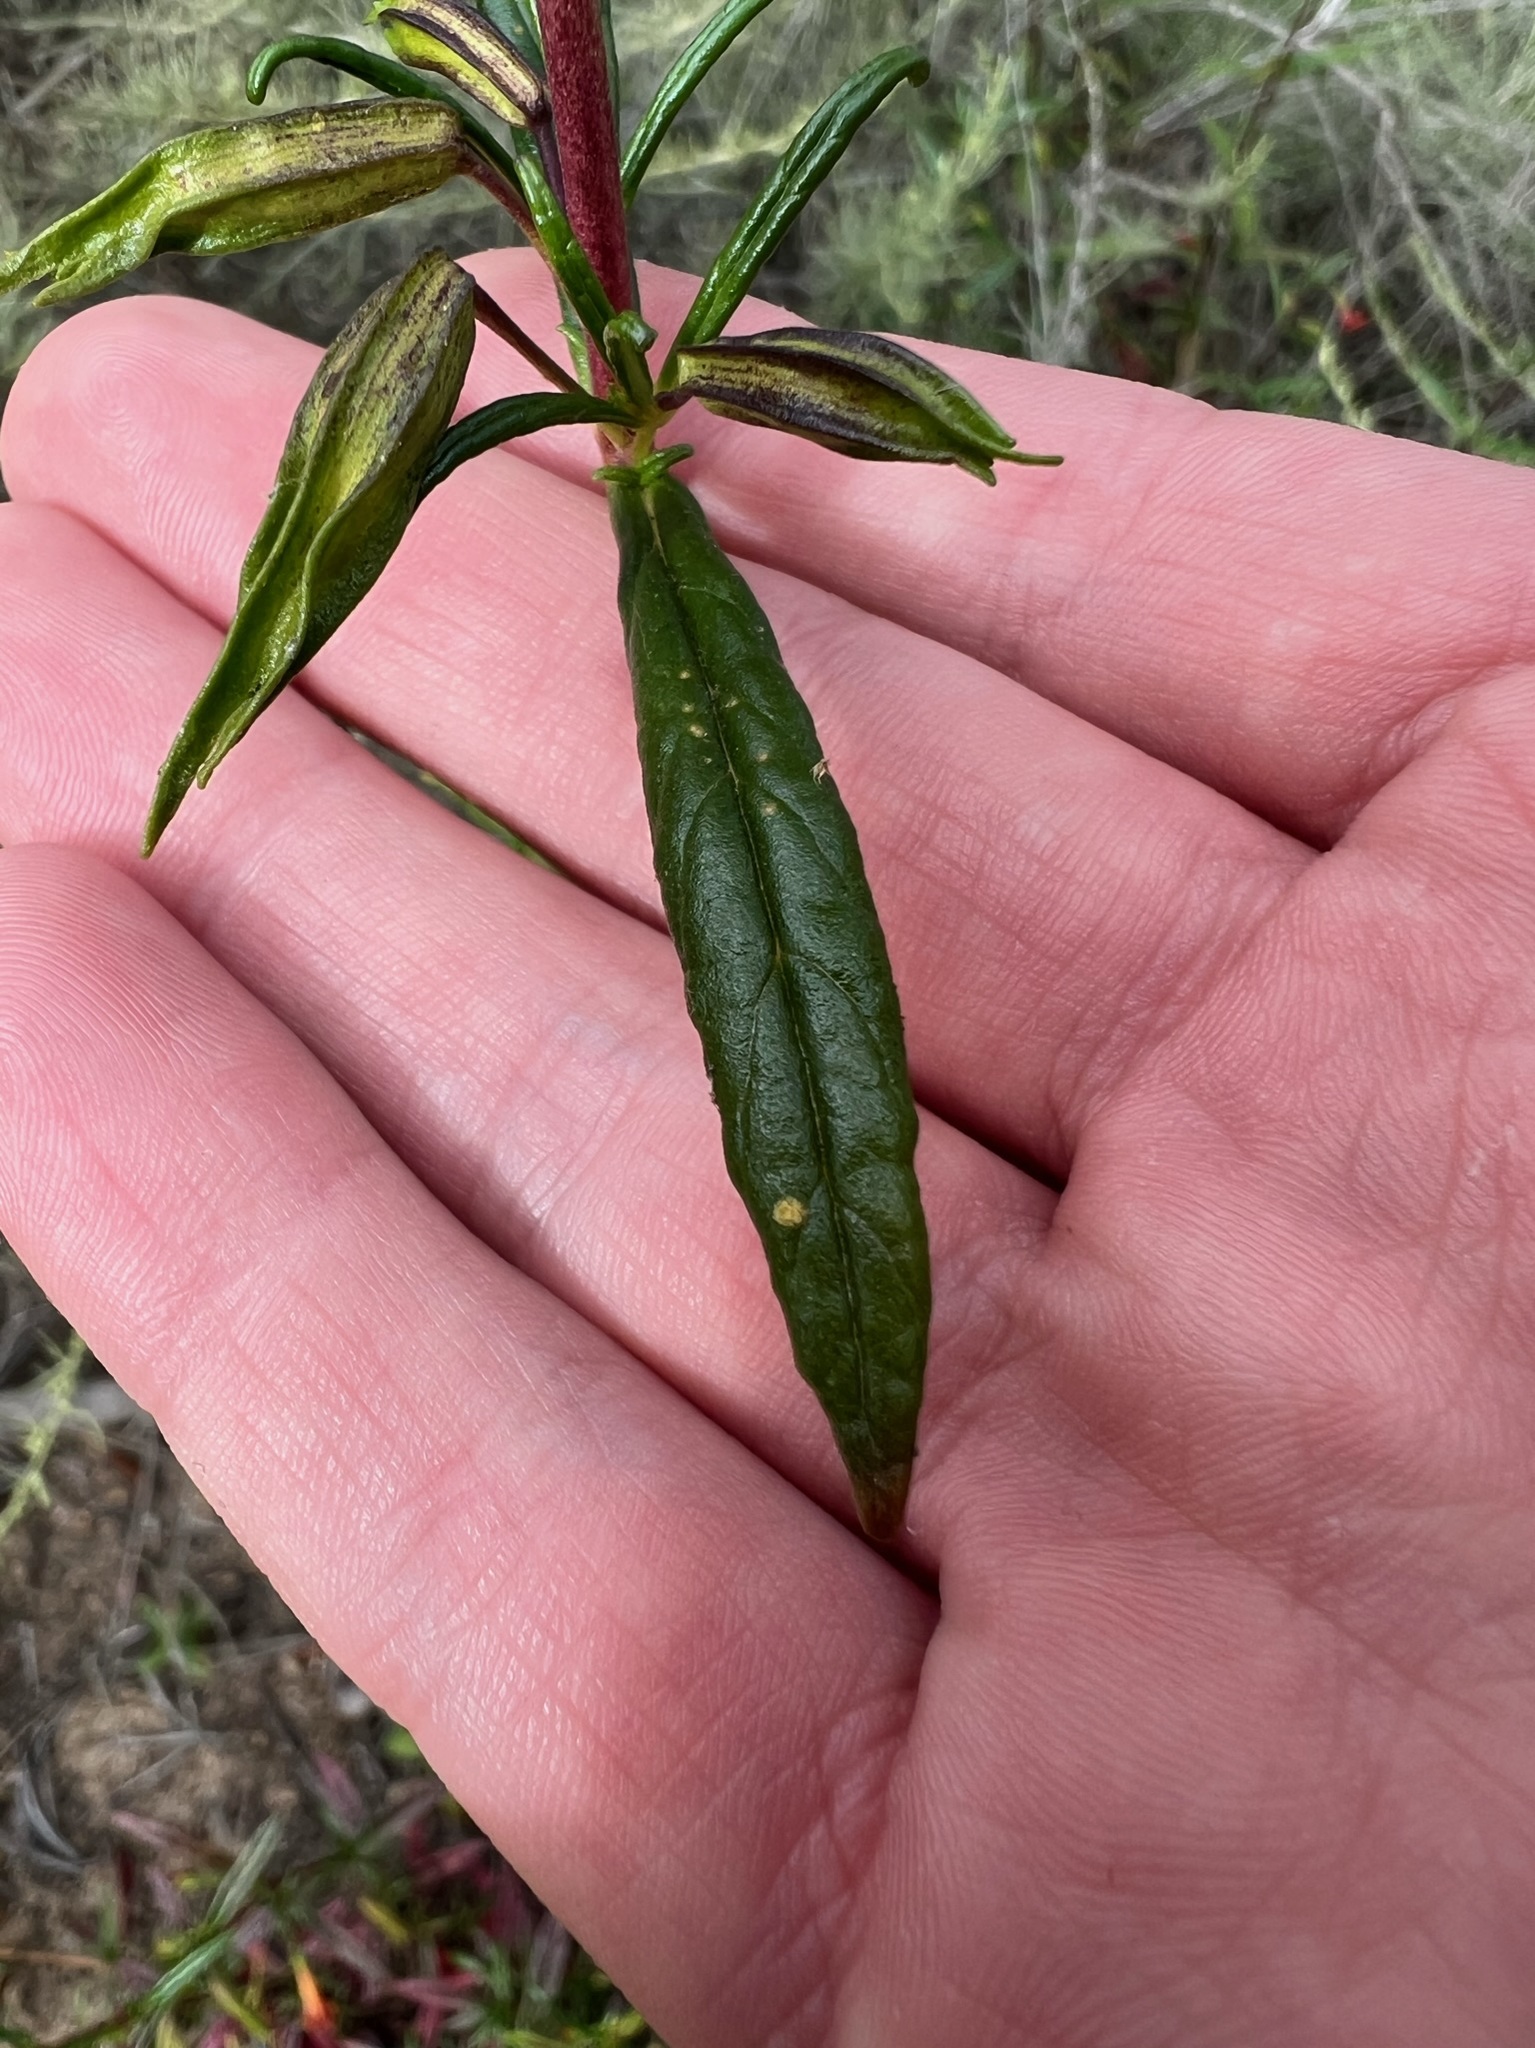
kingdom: Plantae
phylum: Tracheophyta
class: Magnoliopsida
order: Lamiales
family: Phrymaceae
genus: Diplacus
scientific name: Diplacus puniceus
